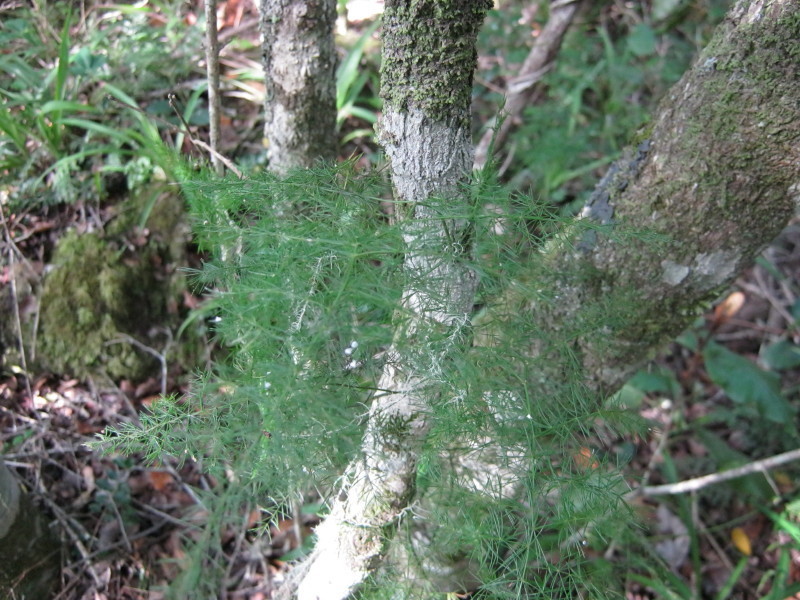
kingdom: Plantae
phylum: Tracheophyta
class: Liliopsida
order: Asparagales
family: Asparagaceae
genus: Asparagus
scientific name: Asparagus setaceus
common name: Common asparagus fern
